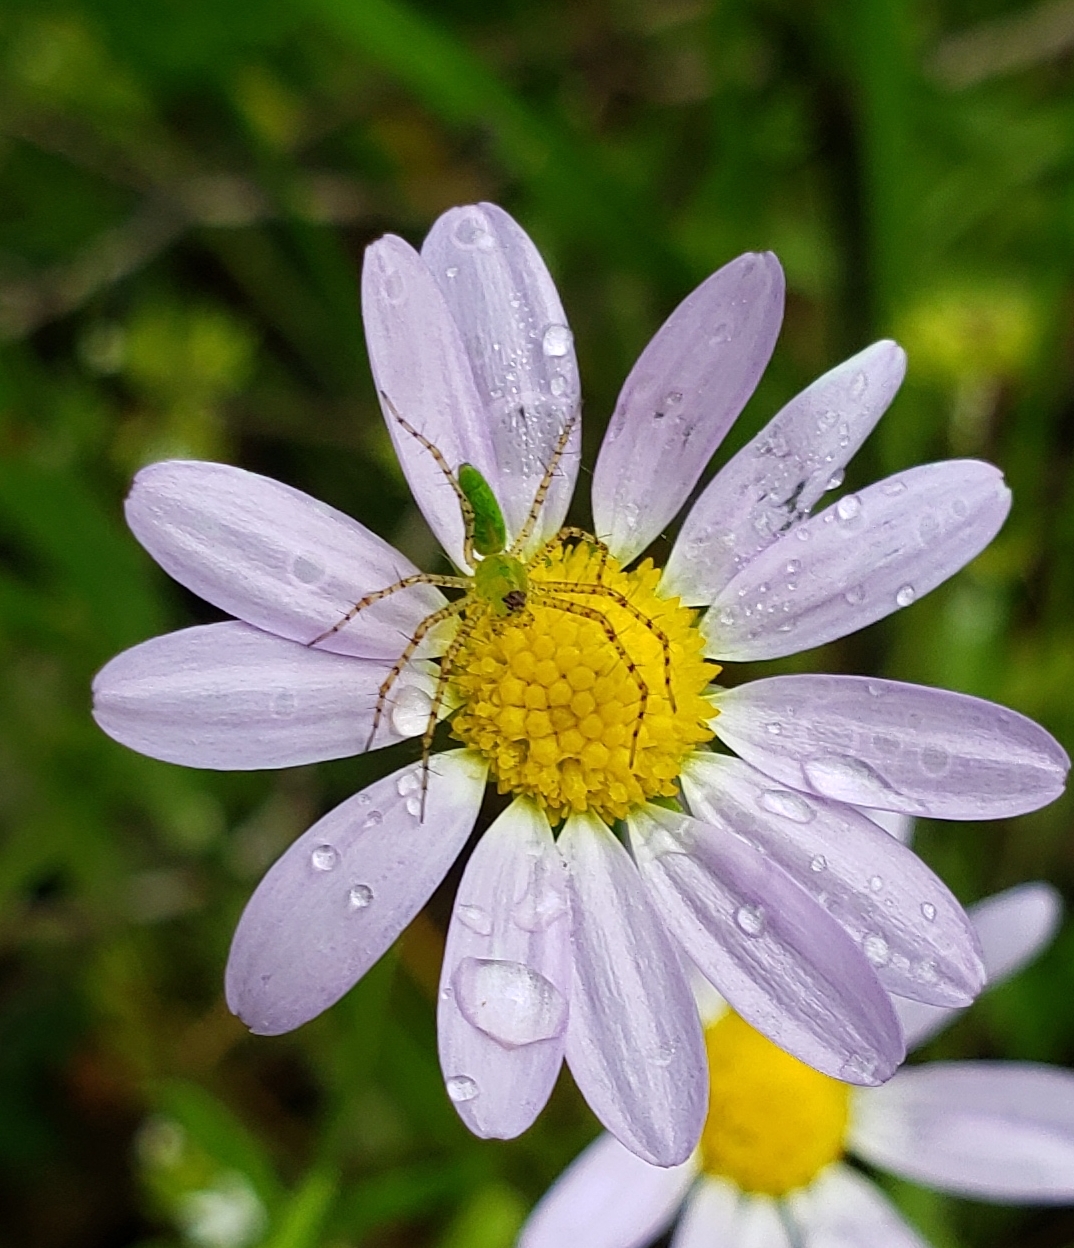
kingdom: Animalia
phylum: Arthropoda
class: Arachnida
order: Araneae
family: Oxyopidae
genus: Peucetia
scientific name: Peucetia viridans
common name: Lynx spiders
